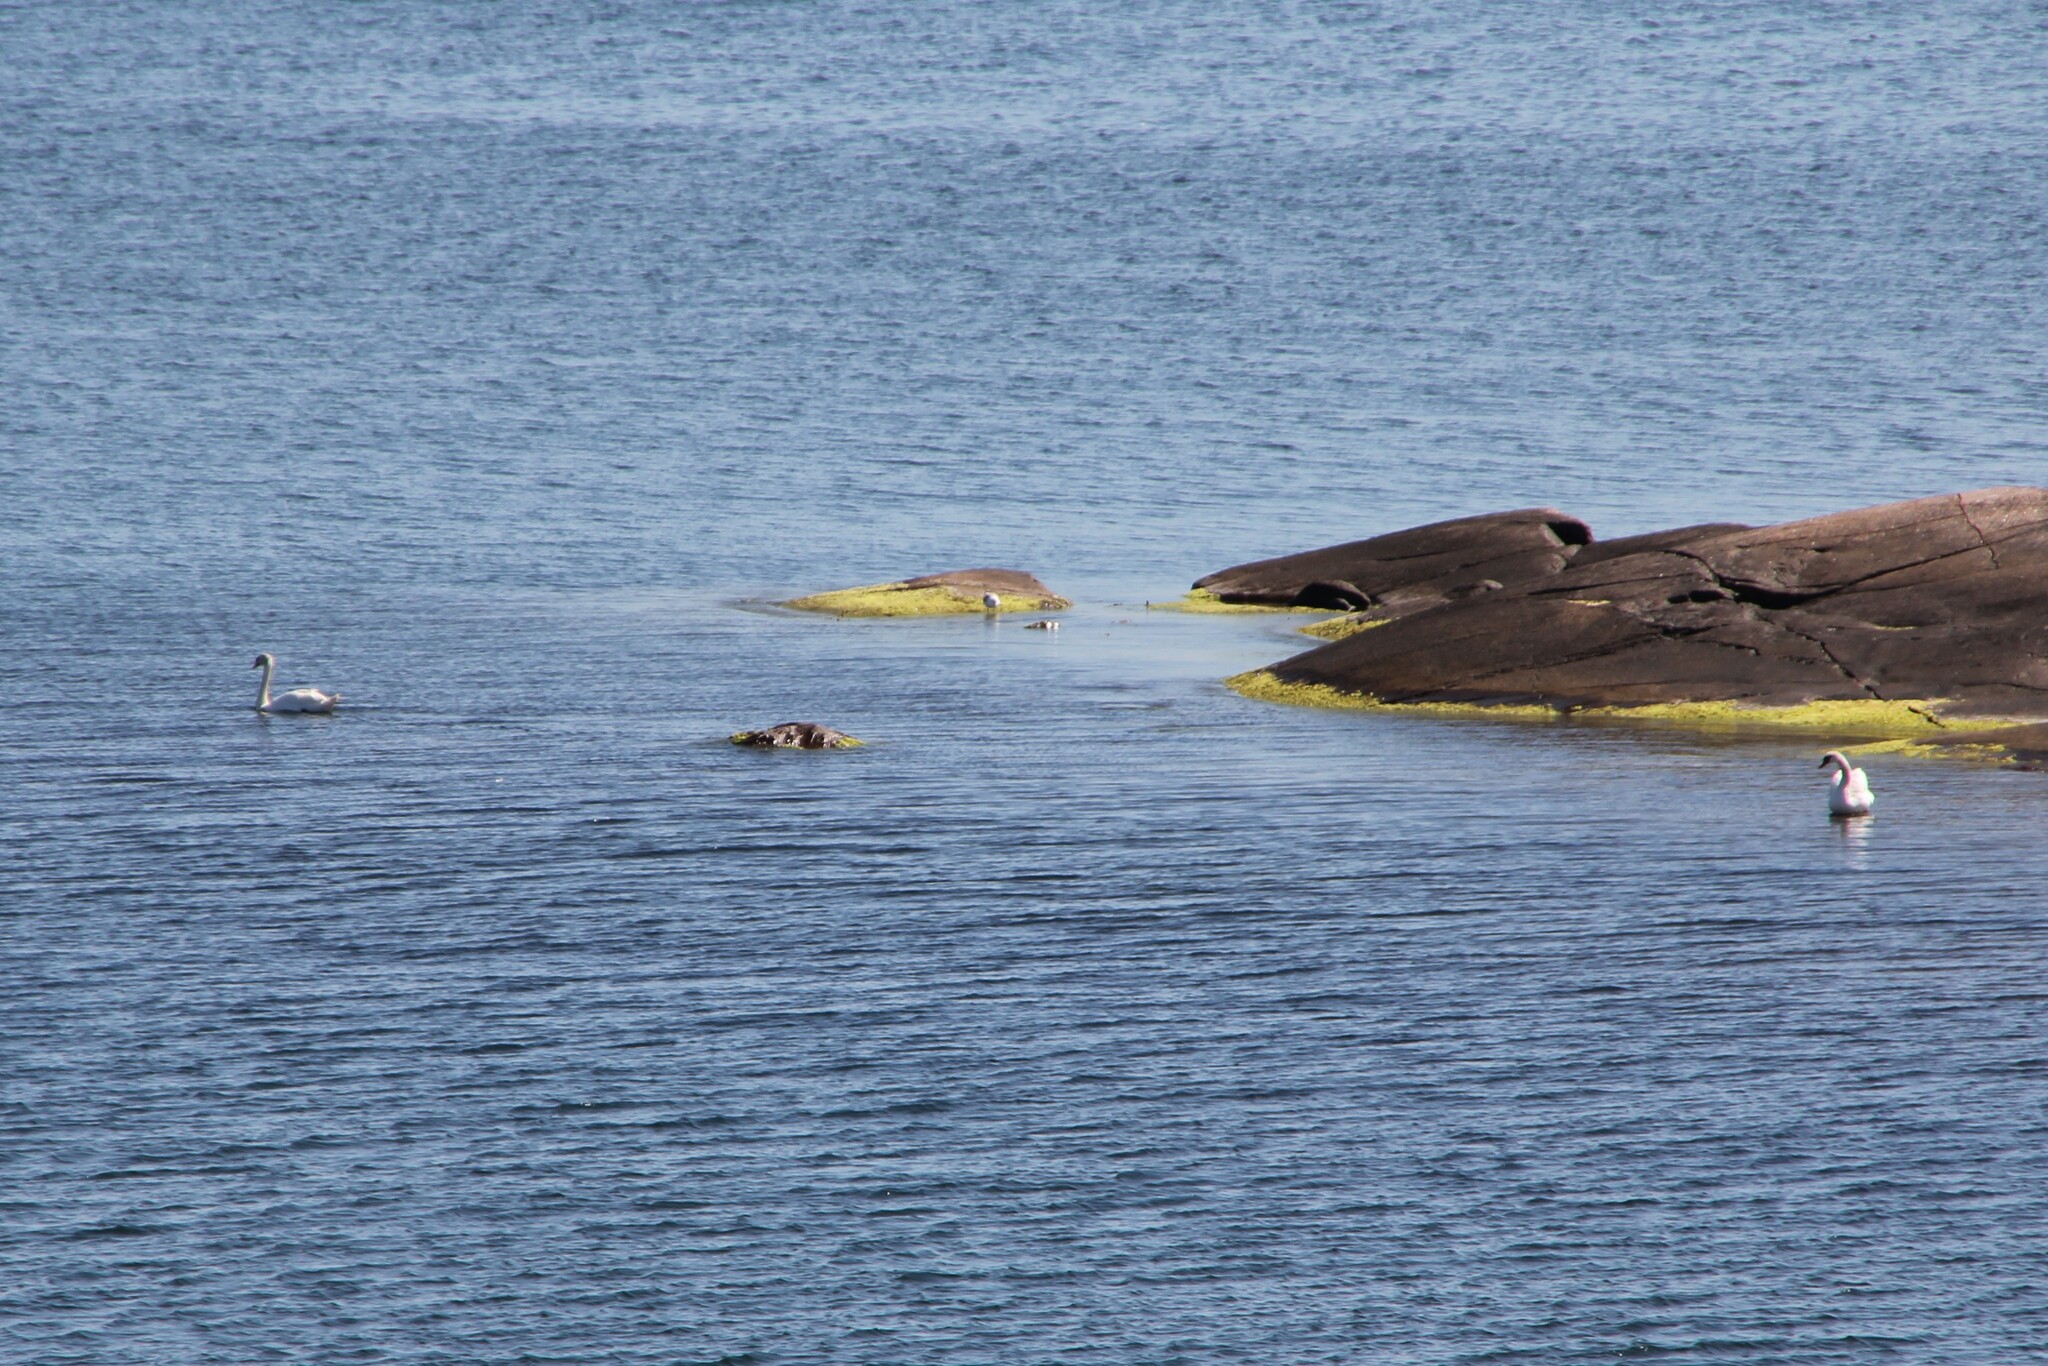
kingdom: Animalia
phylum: Chordata
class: Aves
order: Anseriformes
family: Anatidae
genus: Cygnus
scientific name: Cygnus olor
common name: Mute swan
